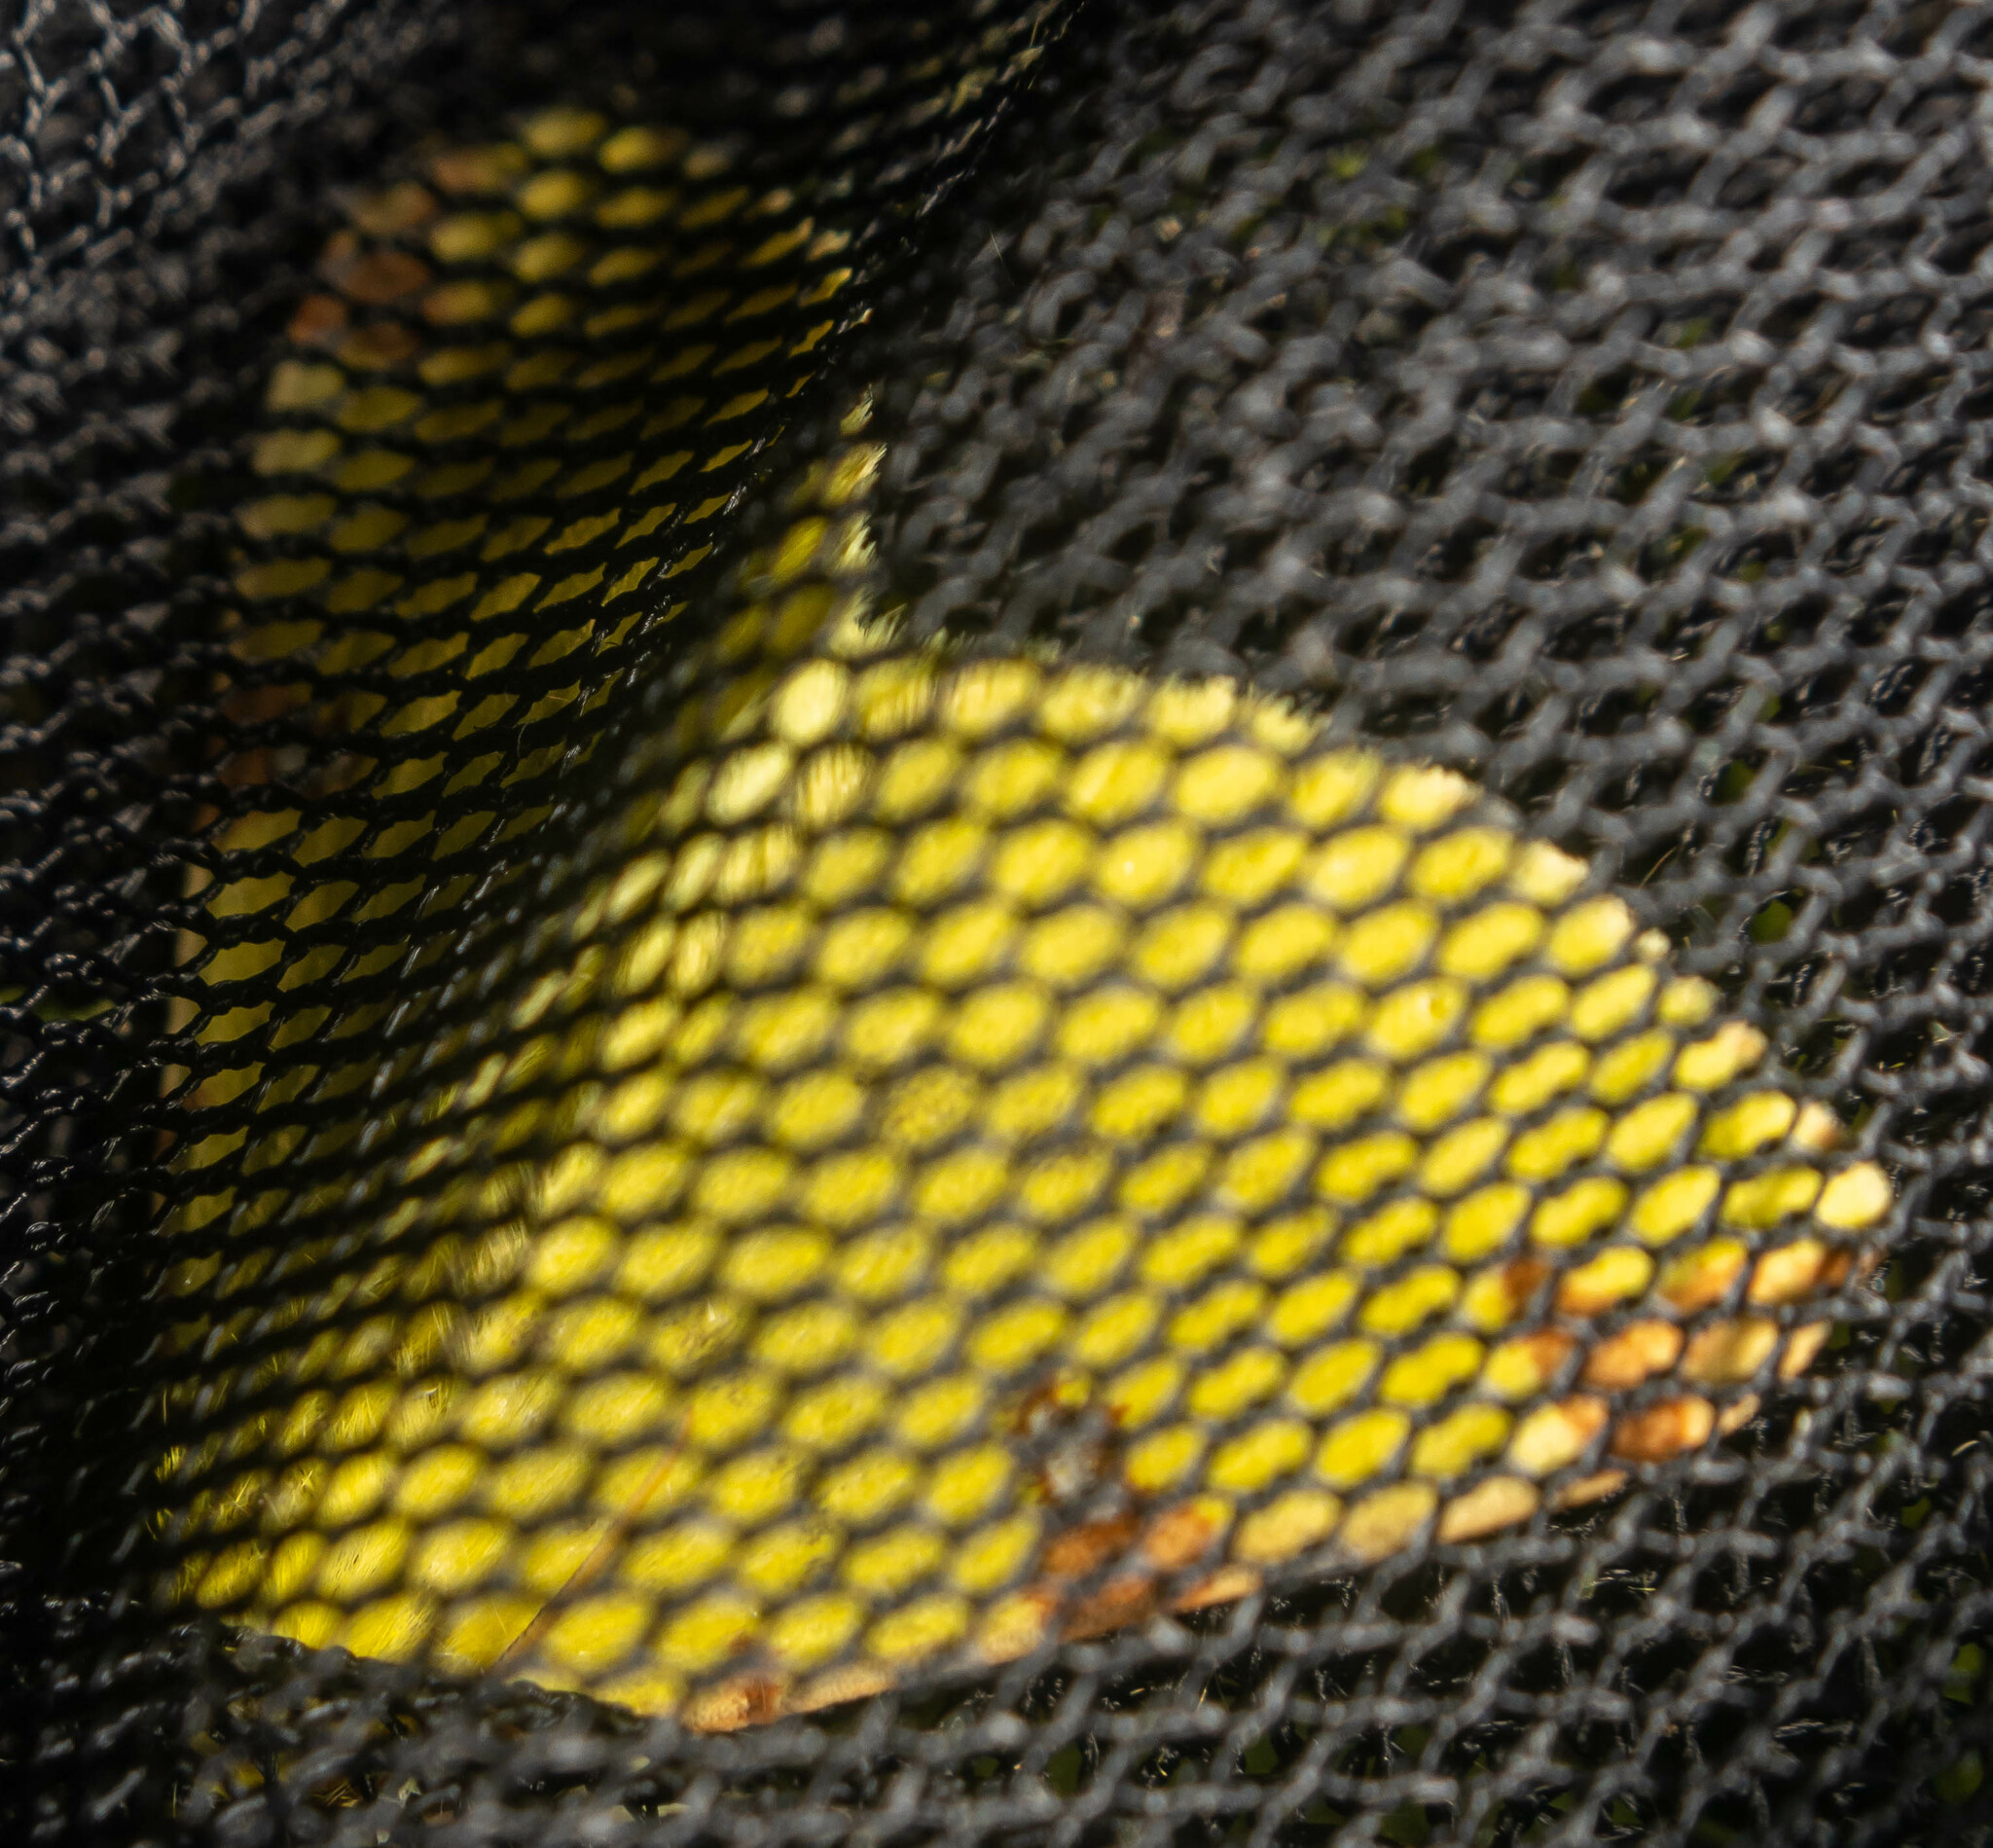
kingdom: Animalia
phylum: Arthropoda
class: Insecta
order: Lepidoptera
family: Geometridae
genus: Opisthograptis
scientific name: Opisthograptis luteolata
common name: Brimstone moth
